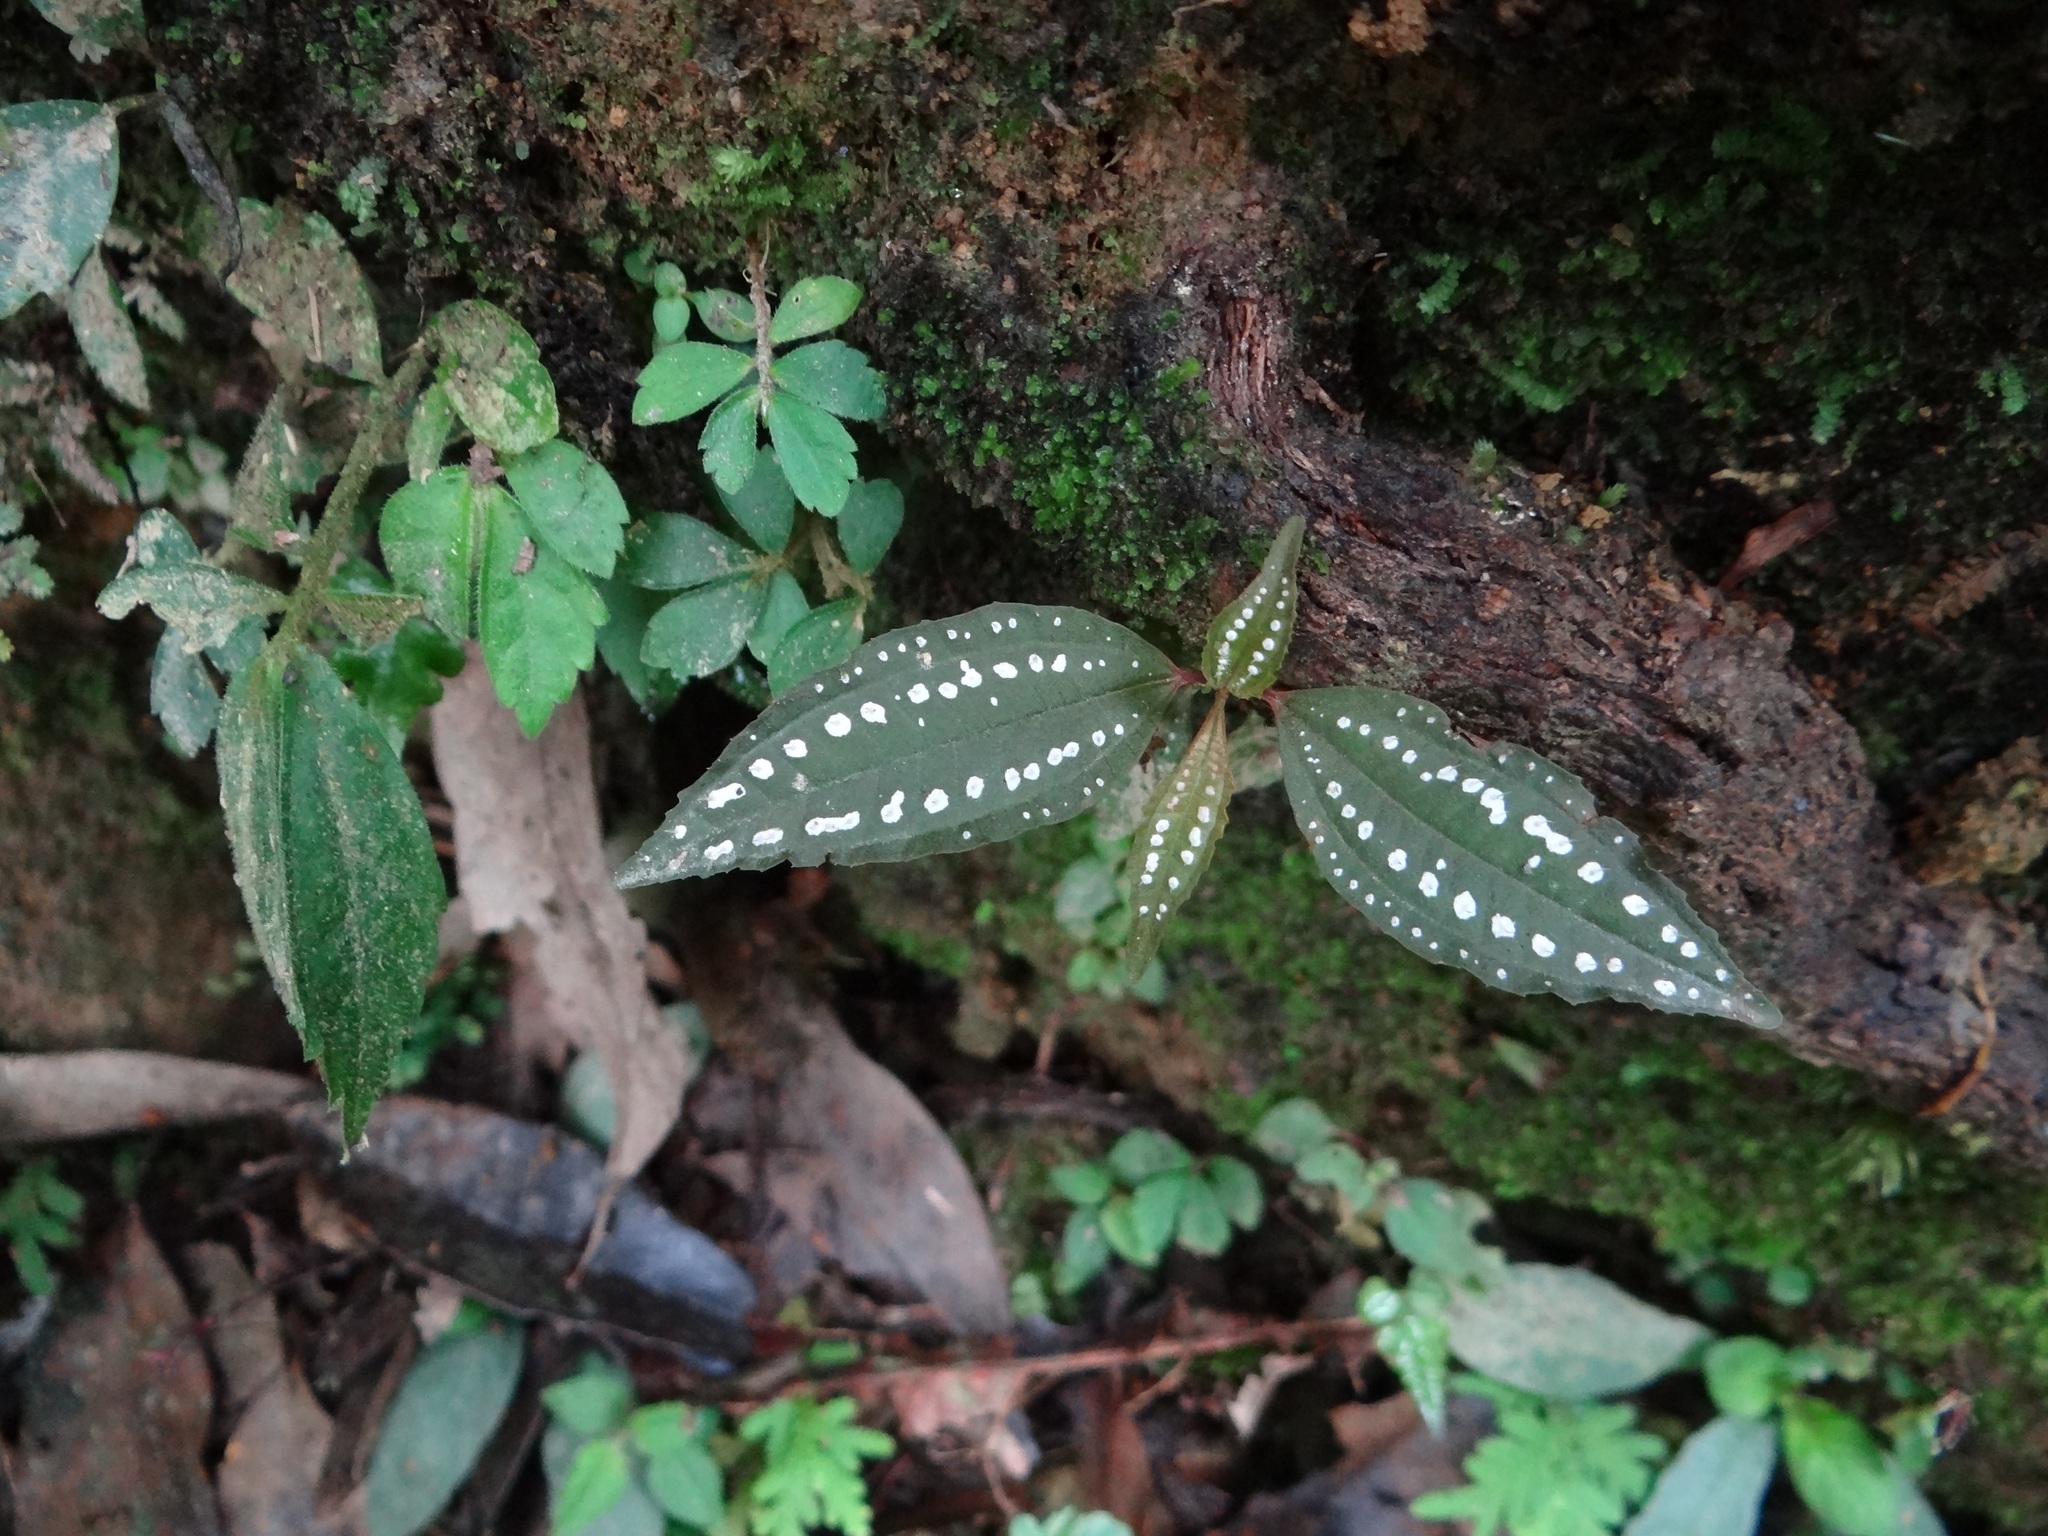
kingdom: Plantae
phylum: Tracheophyta
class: Magnoliopsida
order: Myrtales
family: Melastomataceae
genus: Blastus
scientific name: Blastus cochinchinensis
